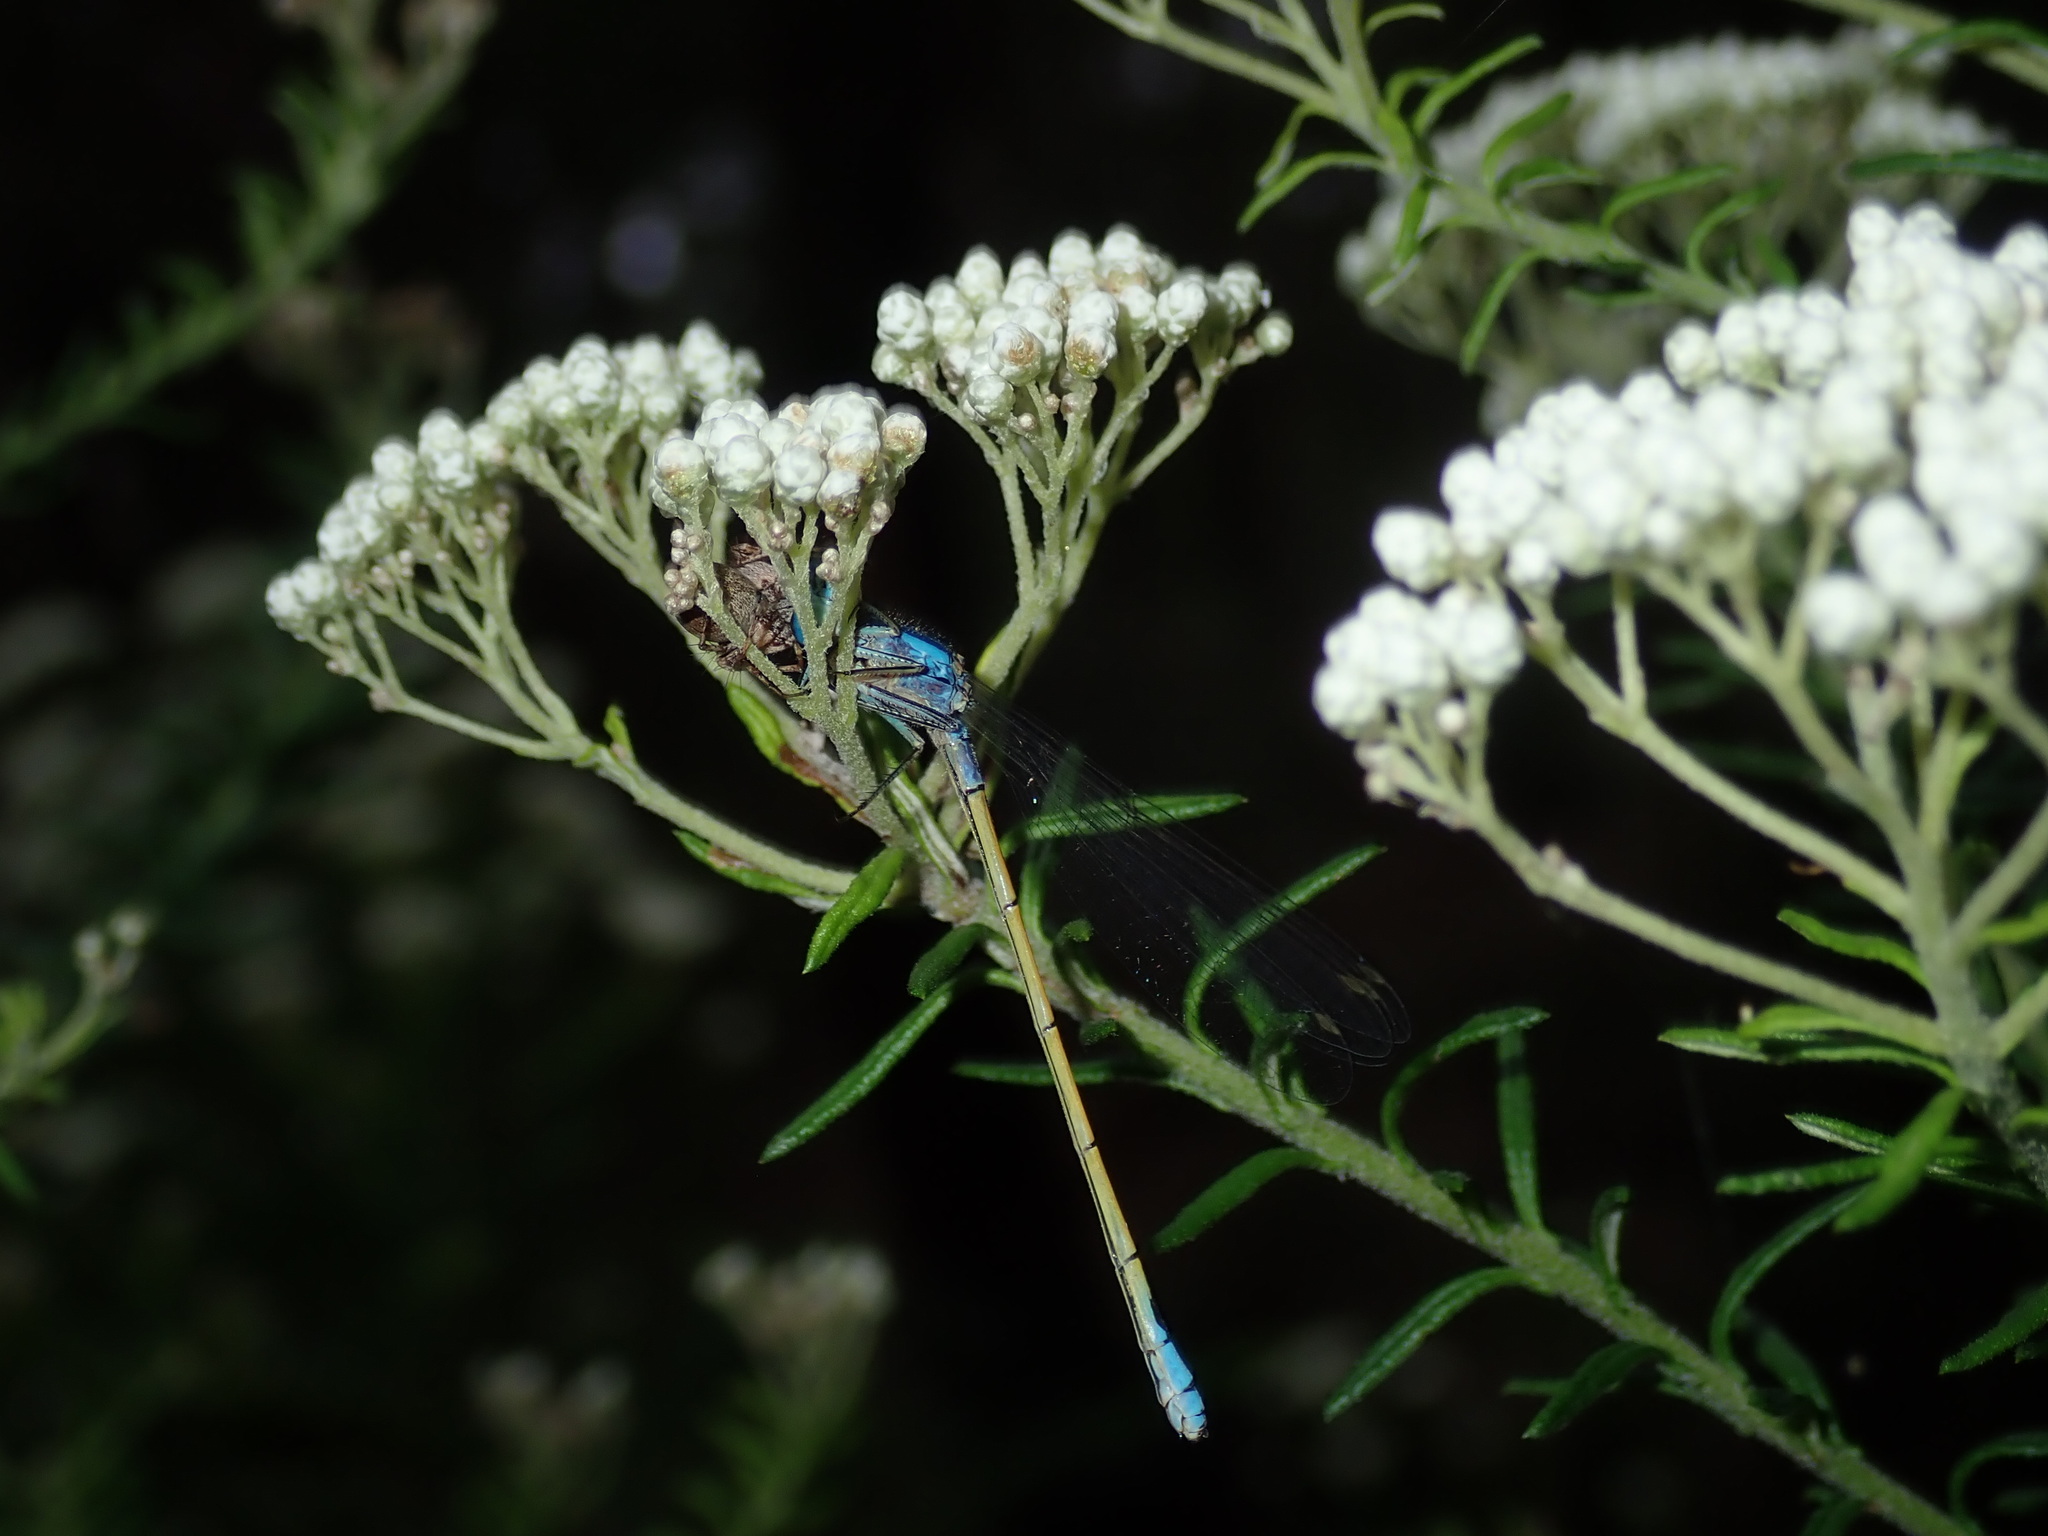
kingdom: Animalia
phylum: Arthropoda
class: Insecta
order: Odonata
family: Coenagrionidae
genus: Ischnura
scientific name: Ischnura heterosticta
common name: Common bluetail
